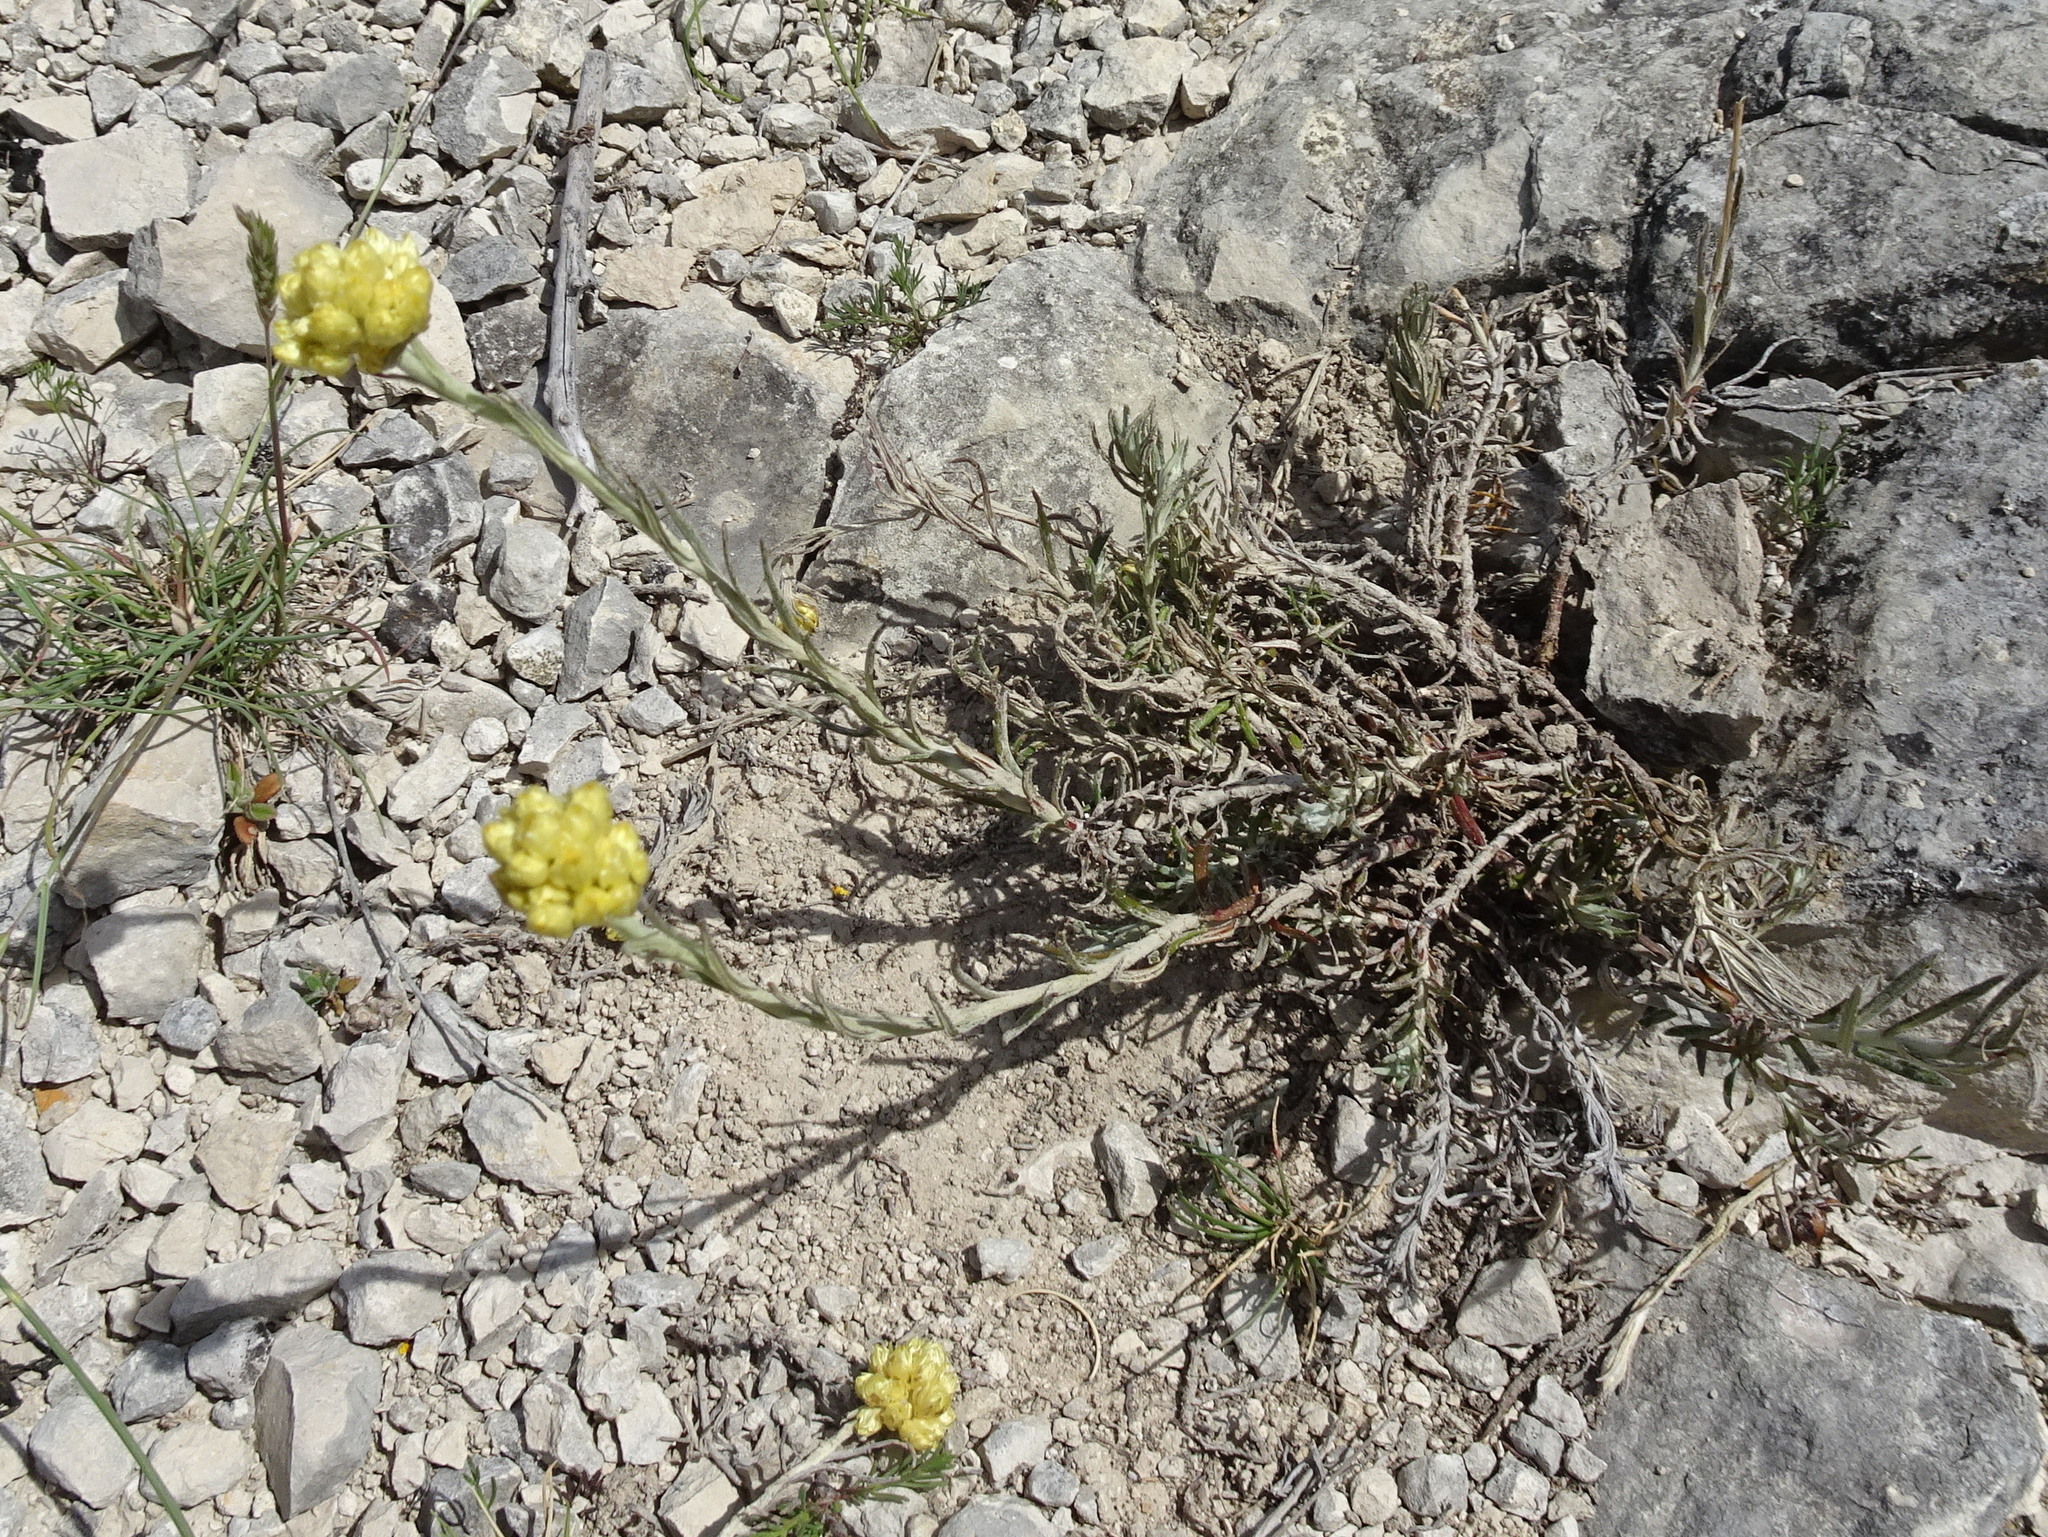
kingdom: Plantae
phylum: Tracheophyta
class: Magnoliopsida
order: Asterales
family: Asteraceae
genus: Helichrysum
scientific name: Helichrysum serotinum
